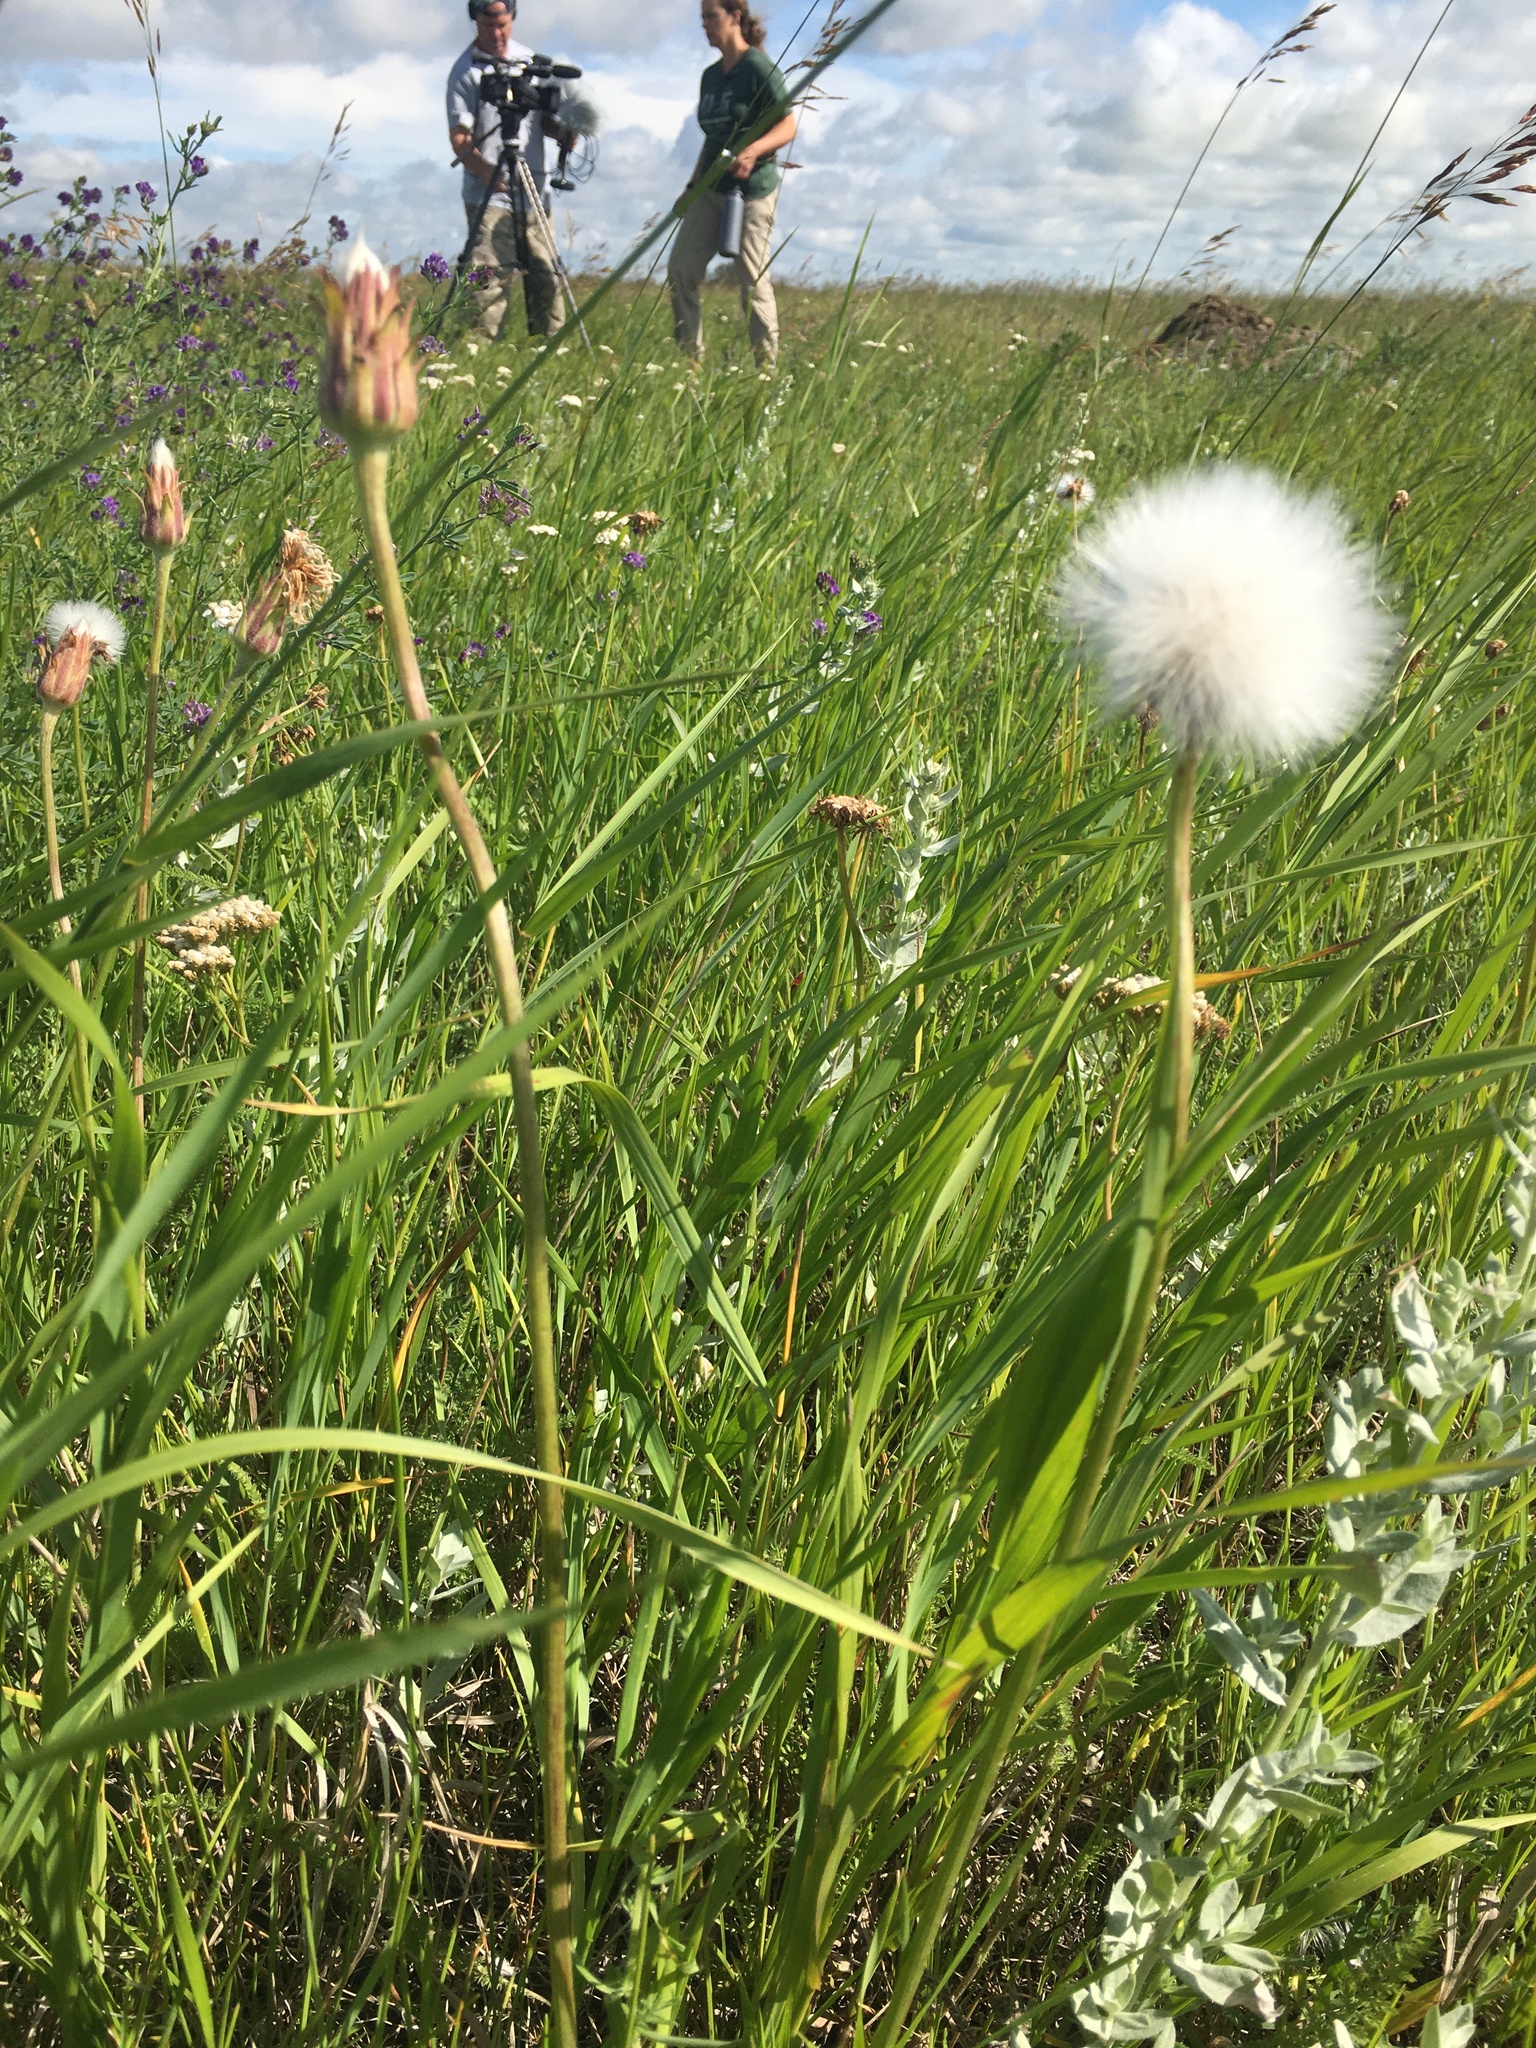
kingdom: Plantae
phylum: Tracheophyta
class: Magnoliopsida
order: Asterales
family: Asteraceae
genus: Agoseris
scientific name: Agoseris glauca
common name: Prairie agoseris
